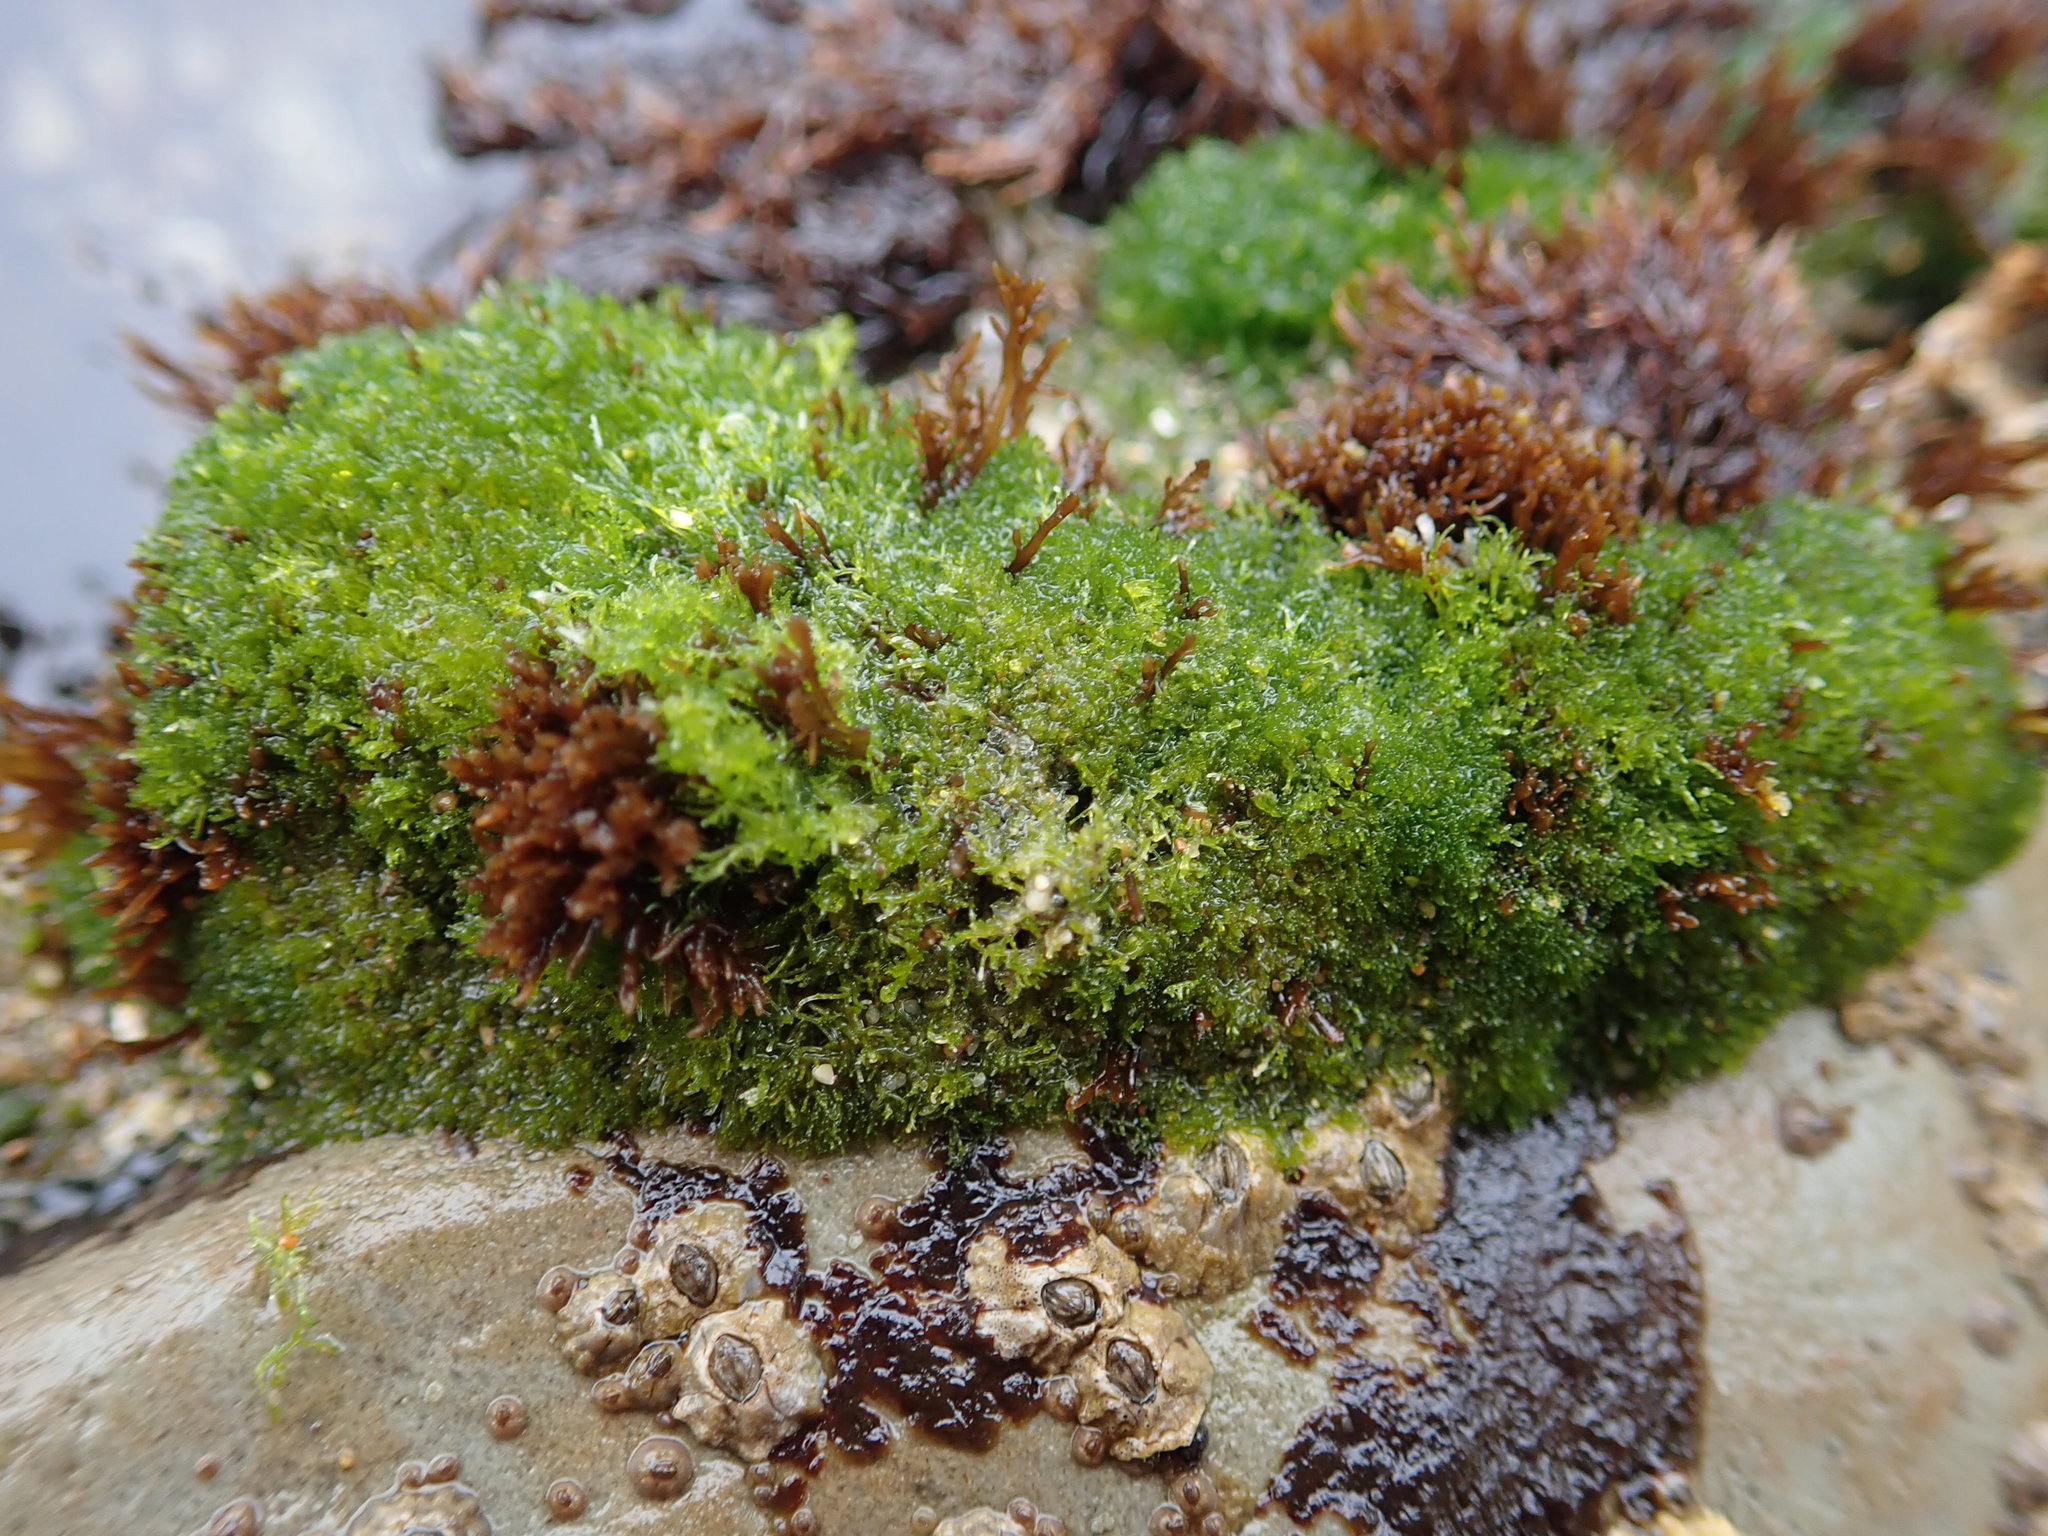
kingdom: Plantae
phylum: Chlorophyta
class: Ulvophyceae
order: Cladophorales
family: Cladophoraceae
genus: Cladophora
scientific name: Cladophora columbiana
